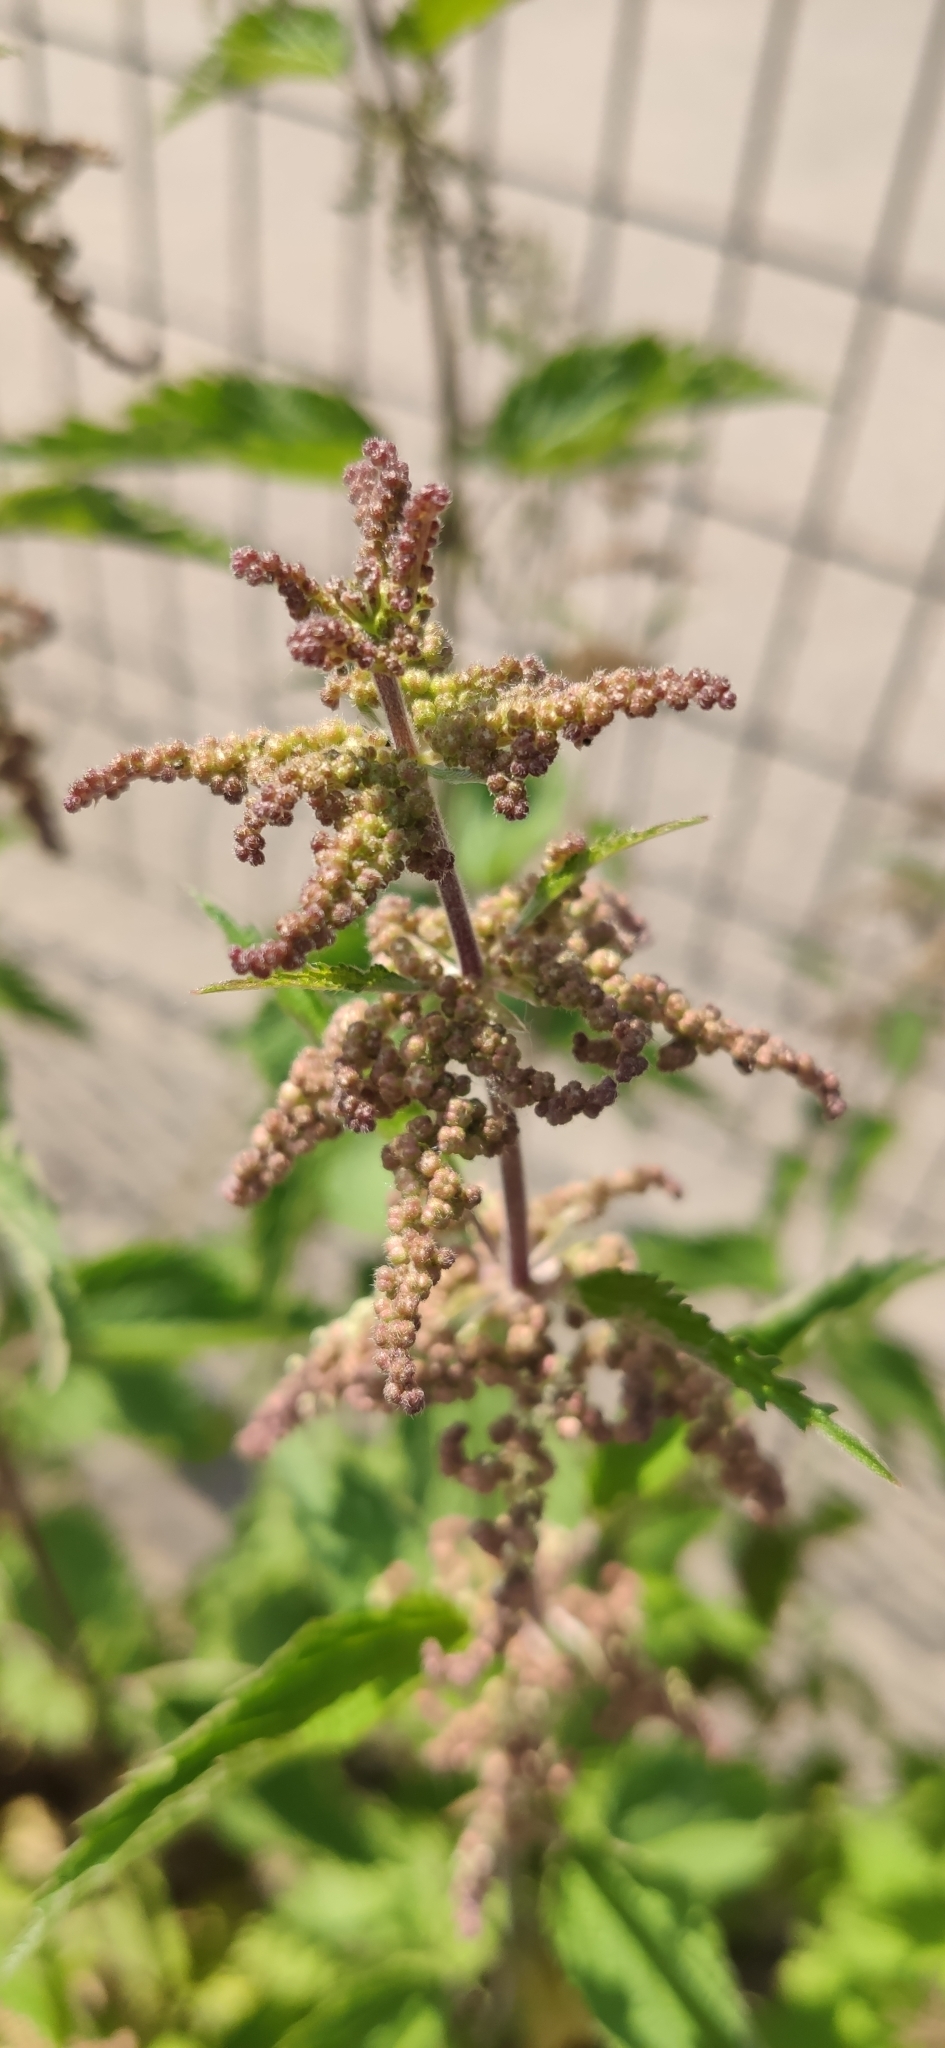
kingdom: Plantae
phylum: Tracheophyta
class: Magnoliopsida
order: Rosales
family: Urticaceae
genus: Urtica
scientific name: Urtica dioica
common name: Common nettle
